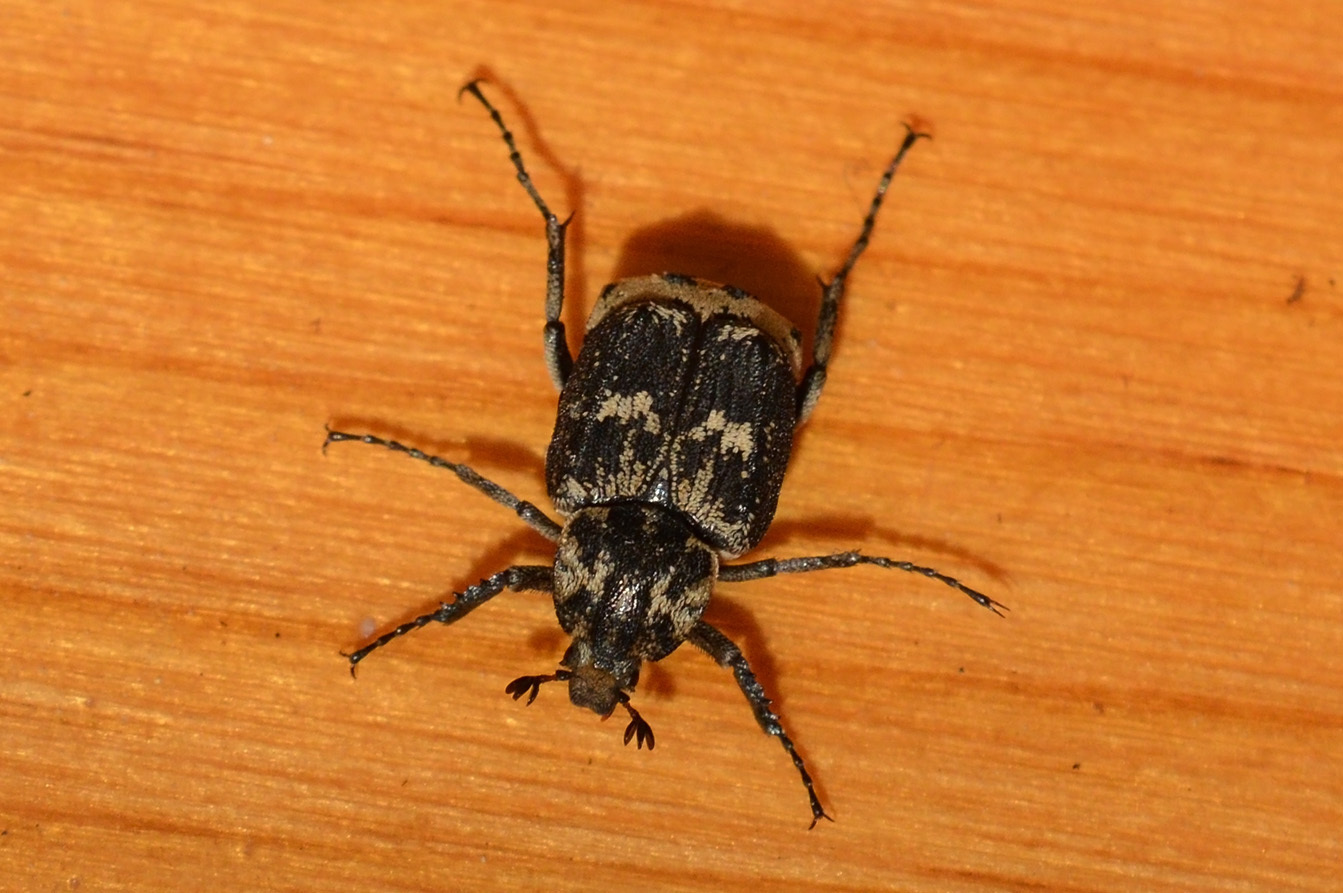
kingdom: Animalia
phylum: Arthropoda
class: Insecta
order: Coleoptera
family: Scarabaeidae
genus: Valgus
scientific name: Valgus hemipterus
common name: Bug flower chafer
